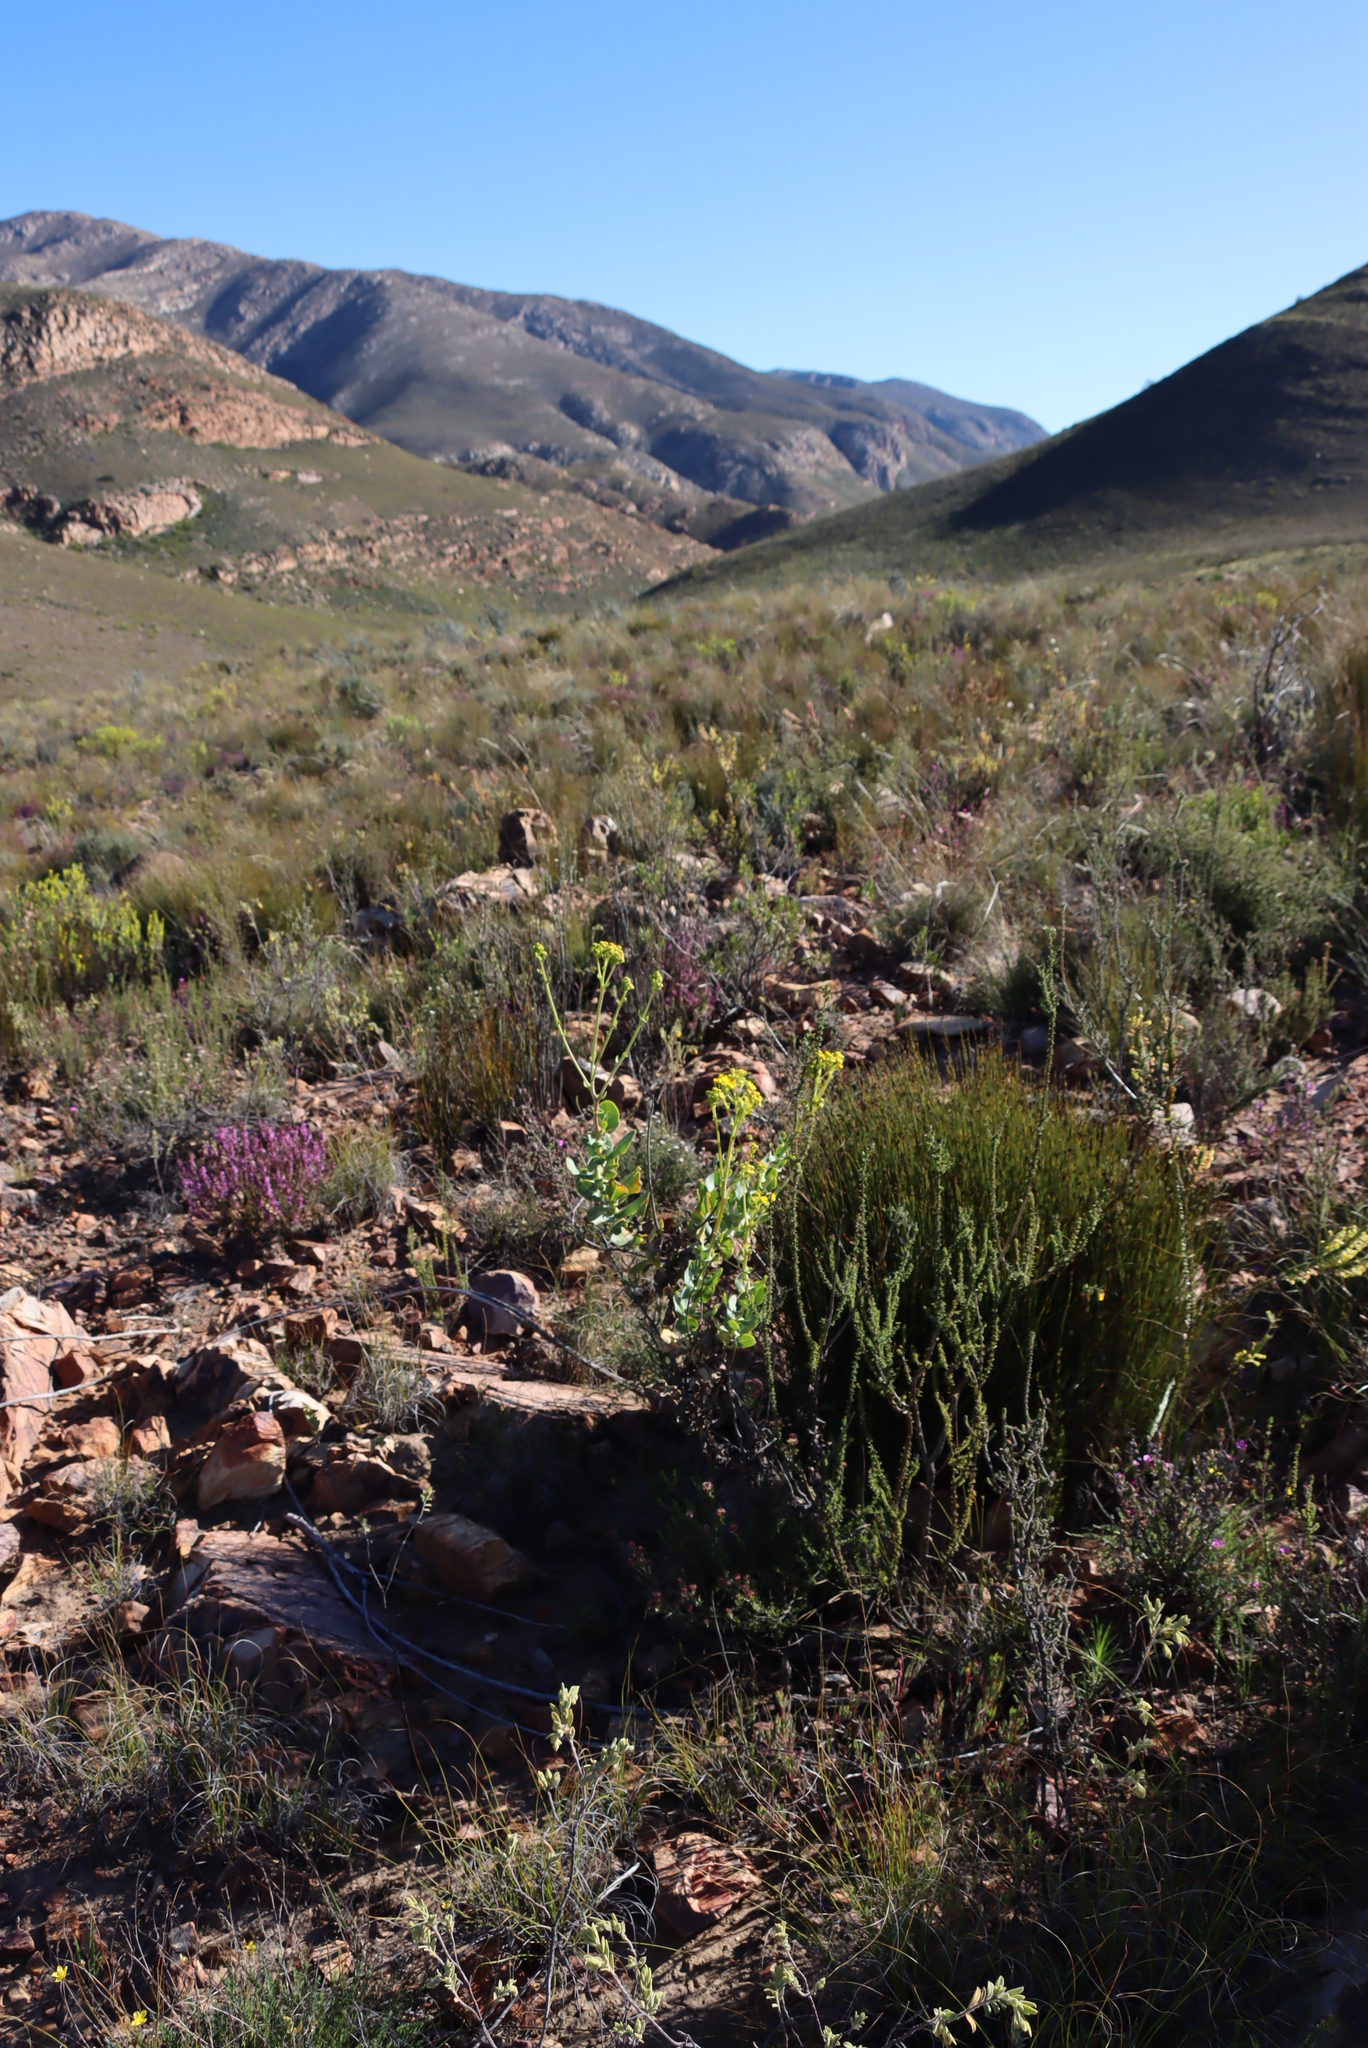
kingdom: Plantae
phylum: Tracheophyta
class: Magnoliopsida
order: Asterales
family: Asteraceae
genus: Othonna
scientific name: Othonna parviflora
